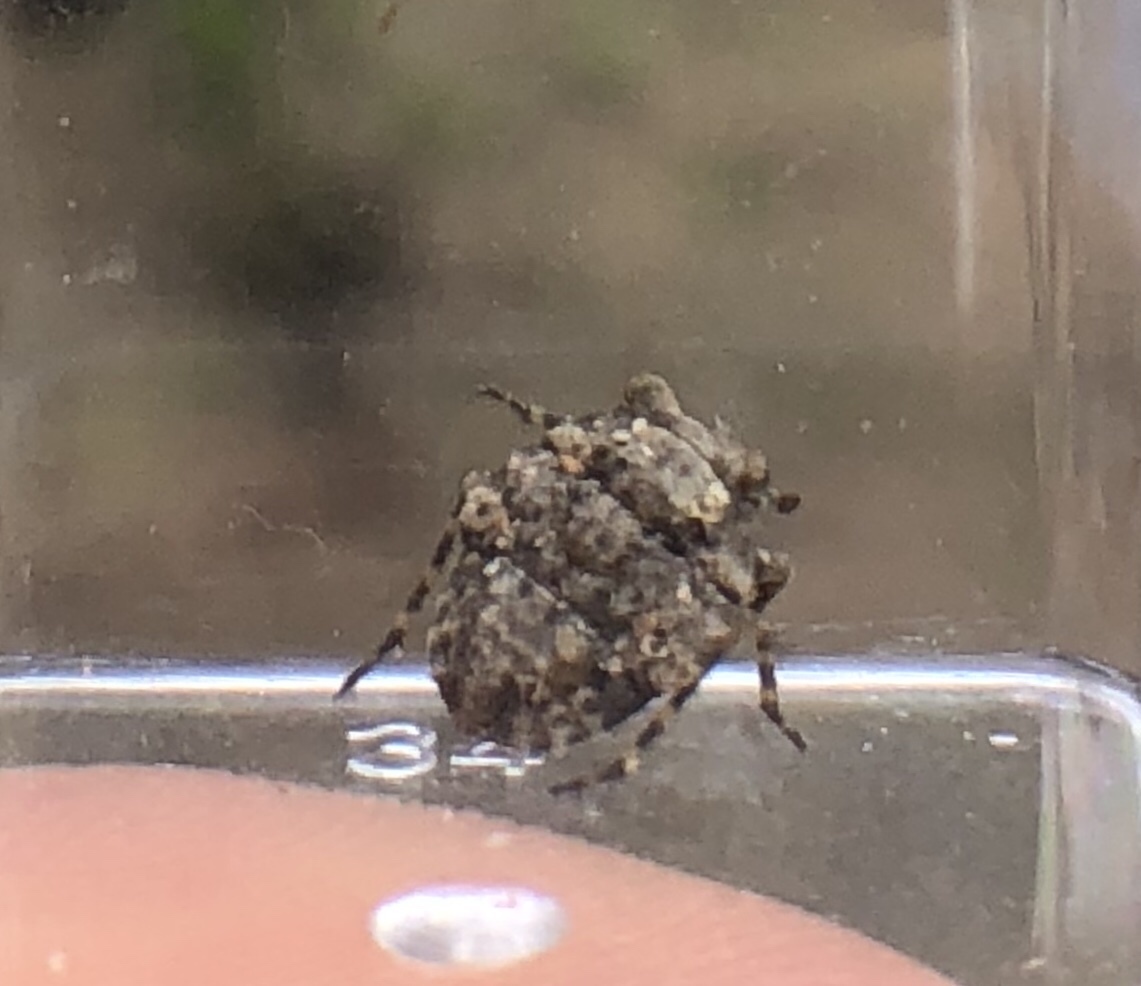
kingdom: Animalia
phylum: Arthropoda
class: Insecta
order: Hemiptera
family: Gelastocoridae
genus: Gelastocoris
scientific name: Gelastocoris oculatus
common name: Toad bug
